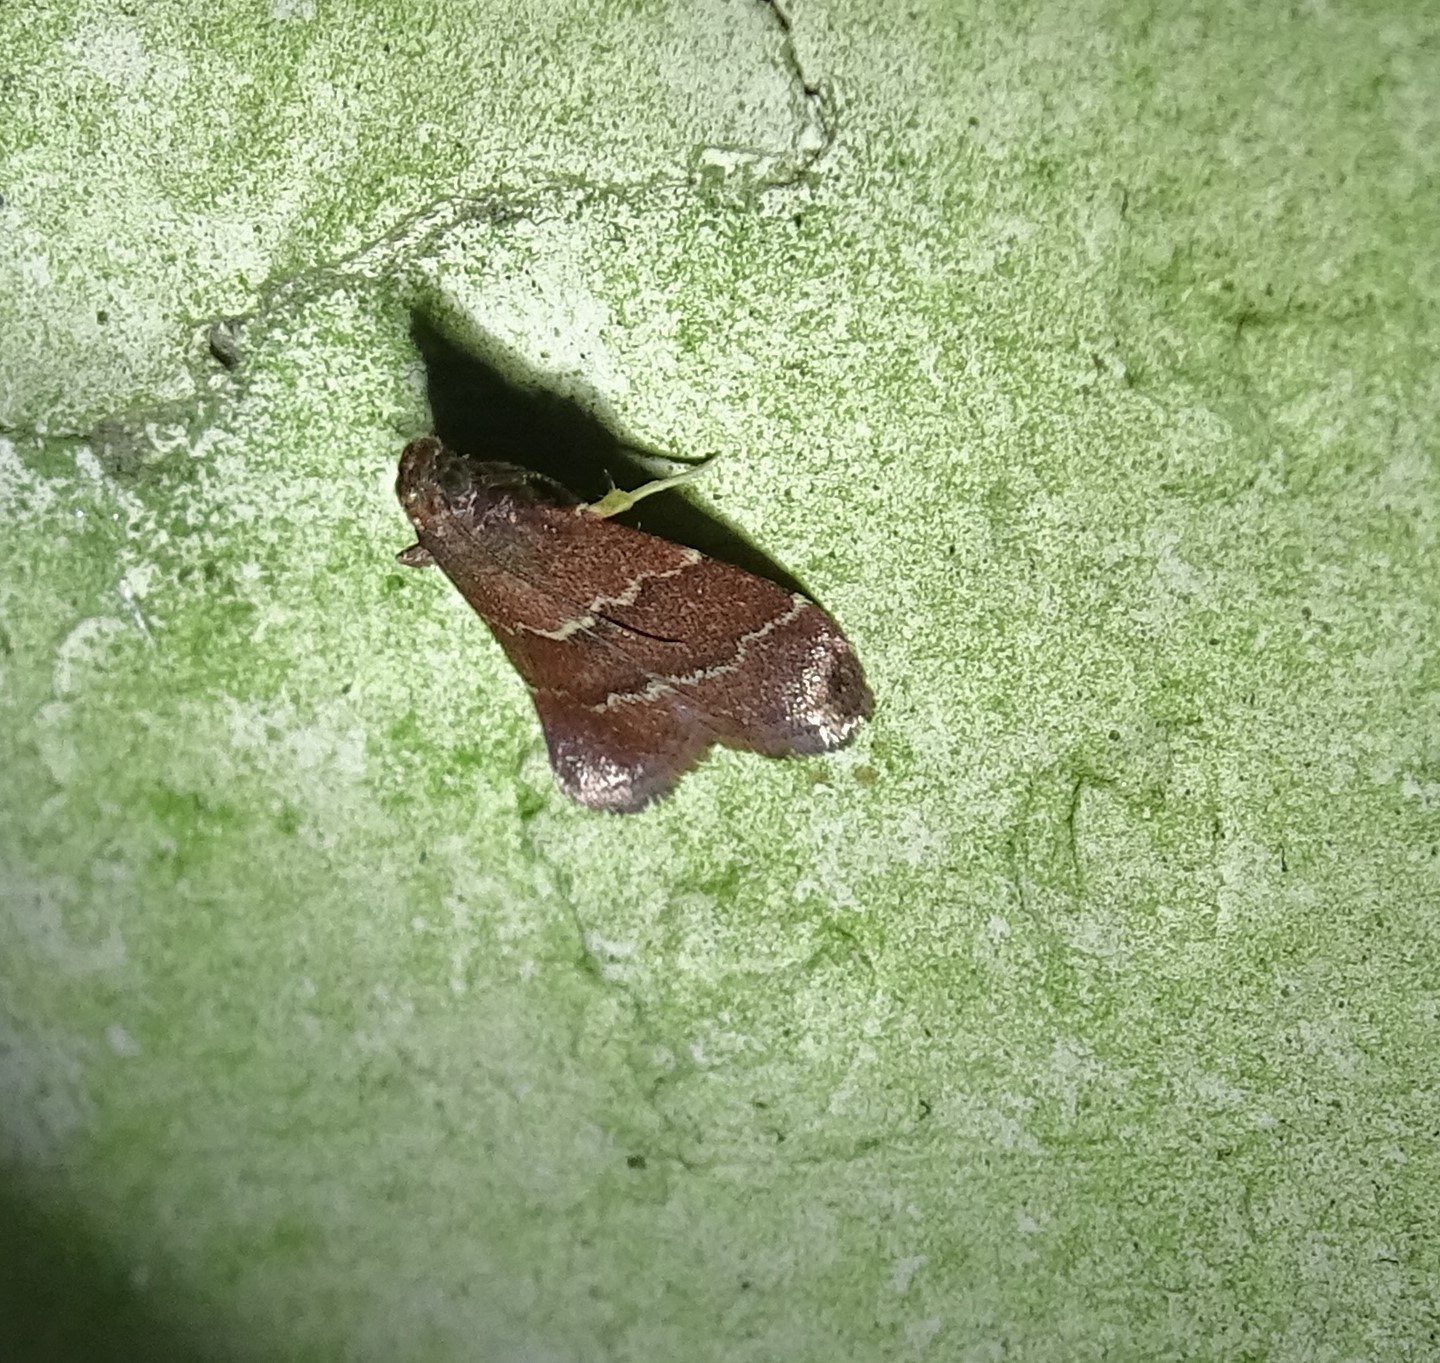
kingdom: Animalia
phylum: Arthropoda
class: Insecta
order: Lepidoptera
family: Pyralidae
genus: Arta
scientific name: Arta
